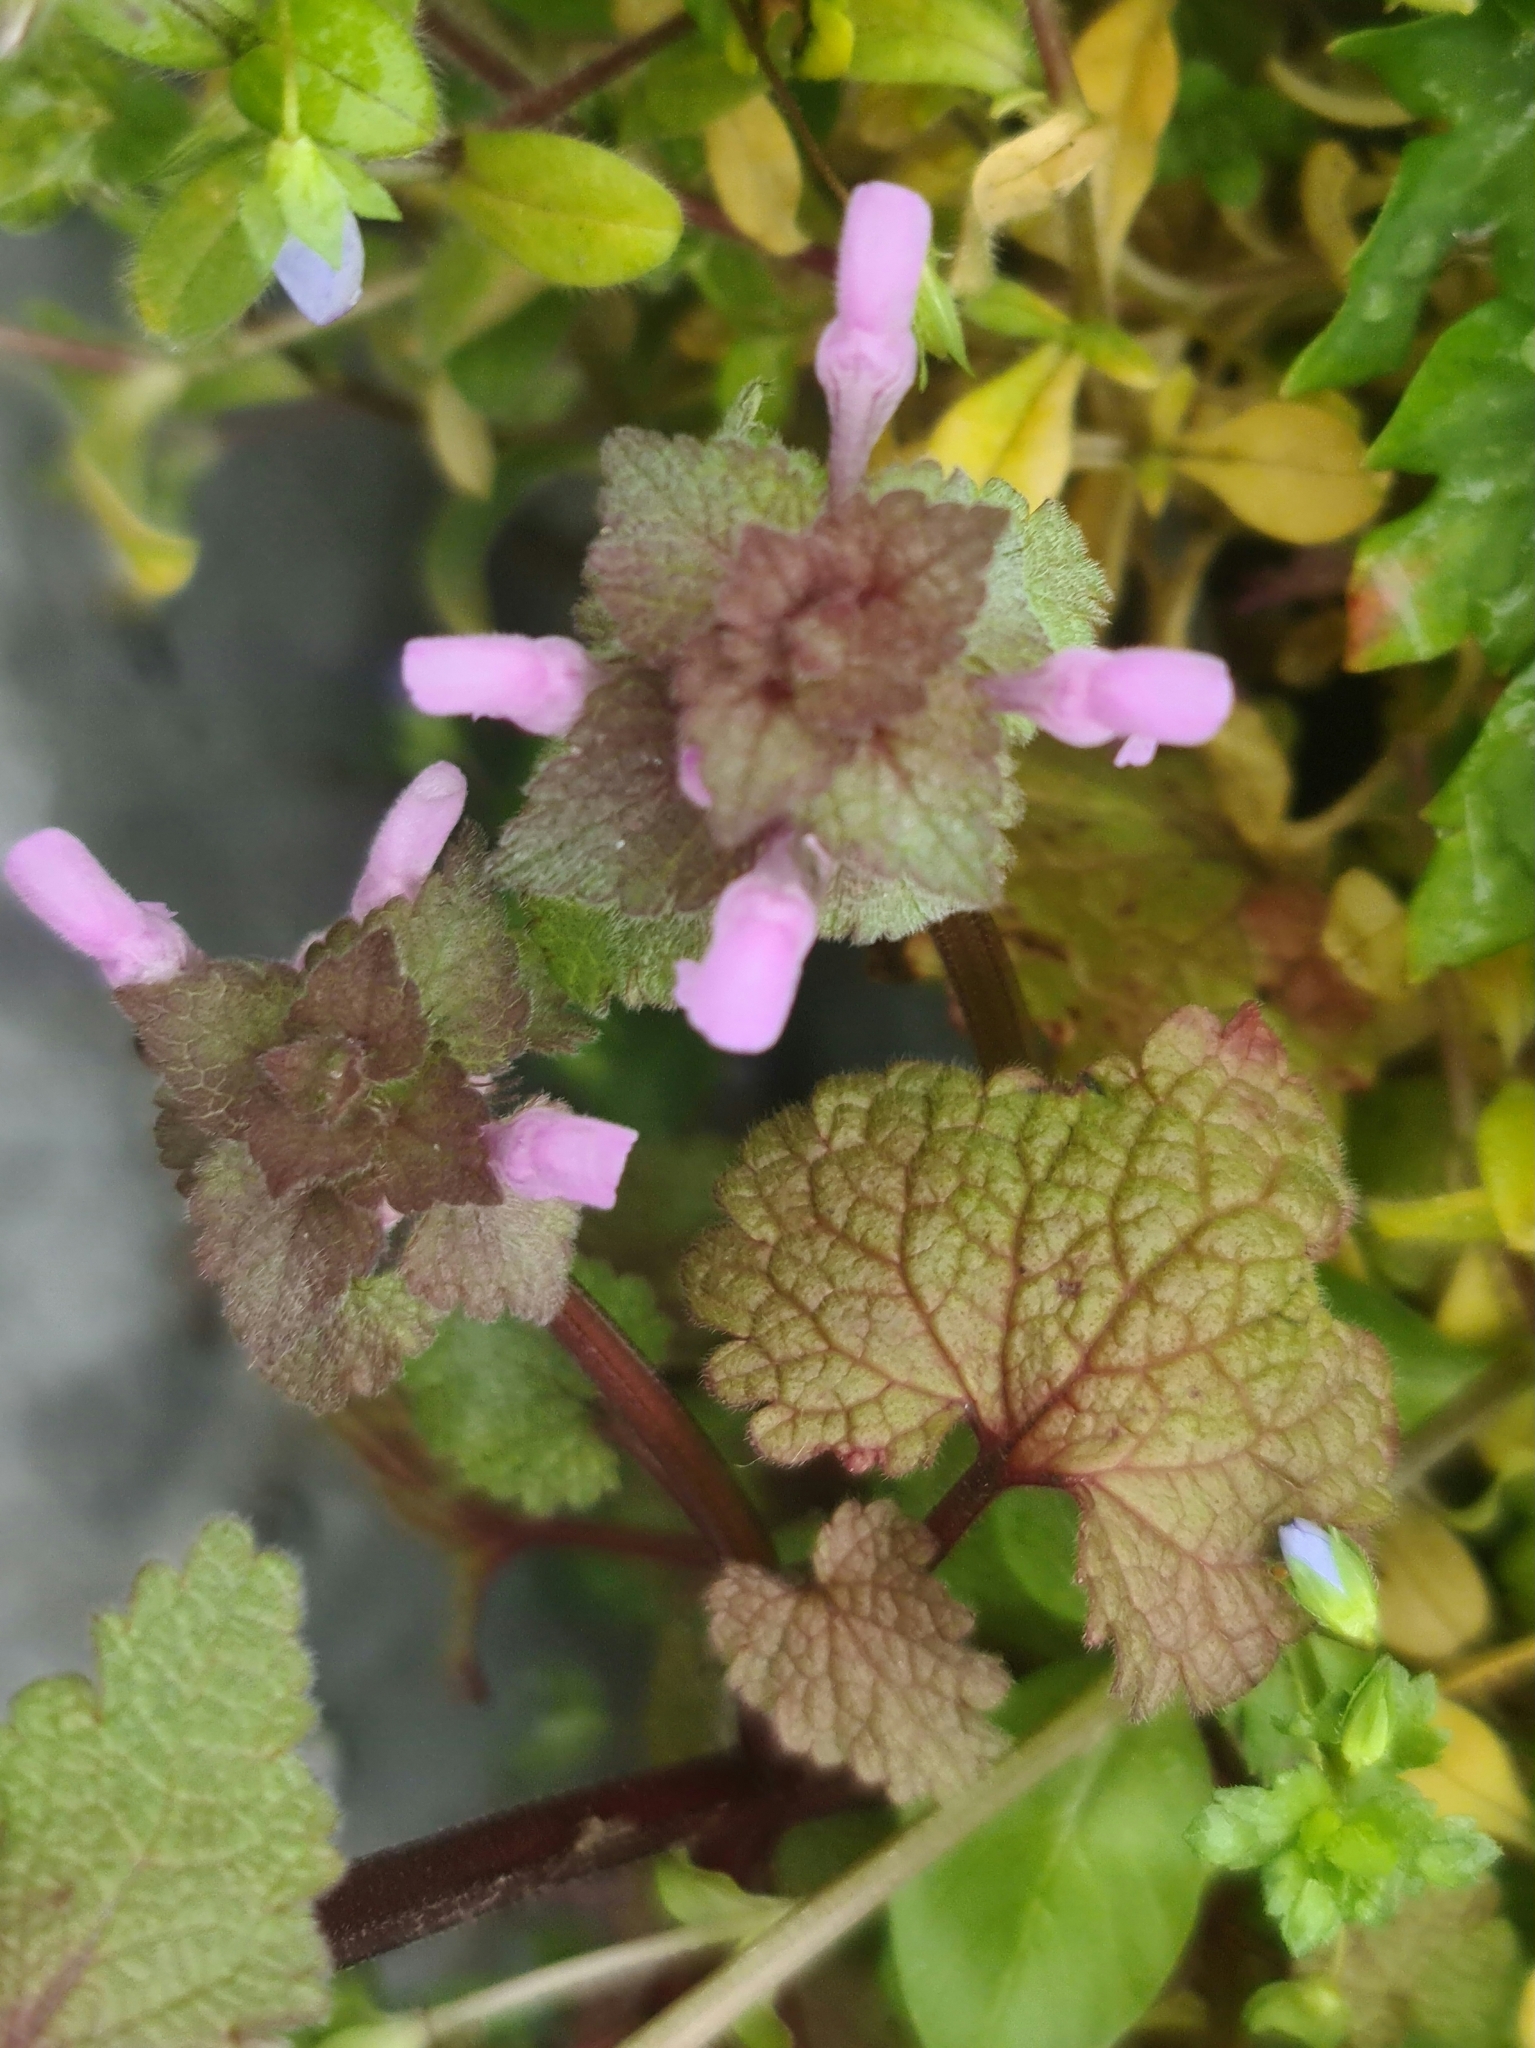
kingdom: Plantae
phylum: Tracheophyta
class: Magnoliopsida
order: Lamiales
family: Lamiaceae
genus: Lamium
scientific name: Lamium purpureum
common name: Red dead-nettle
